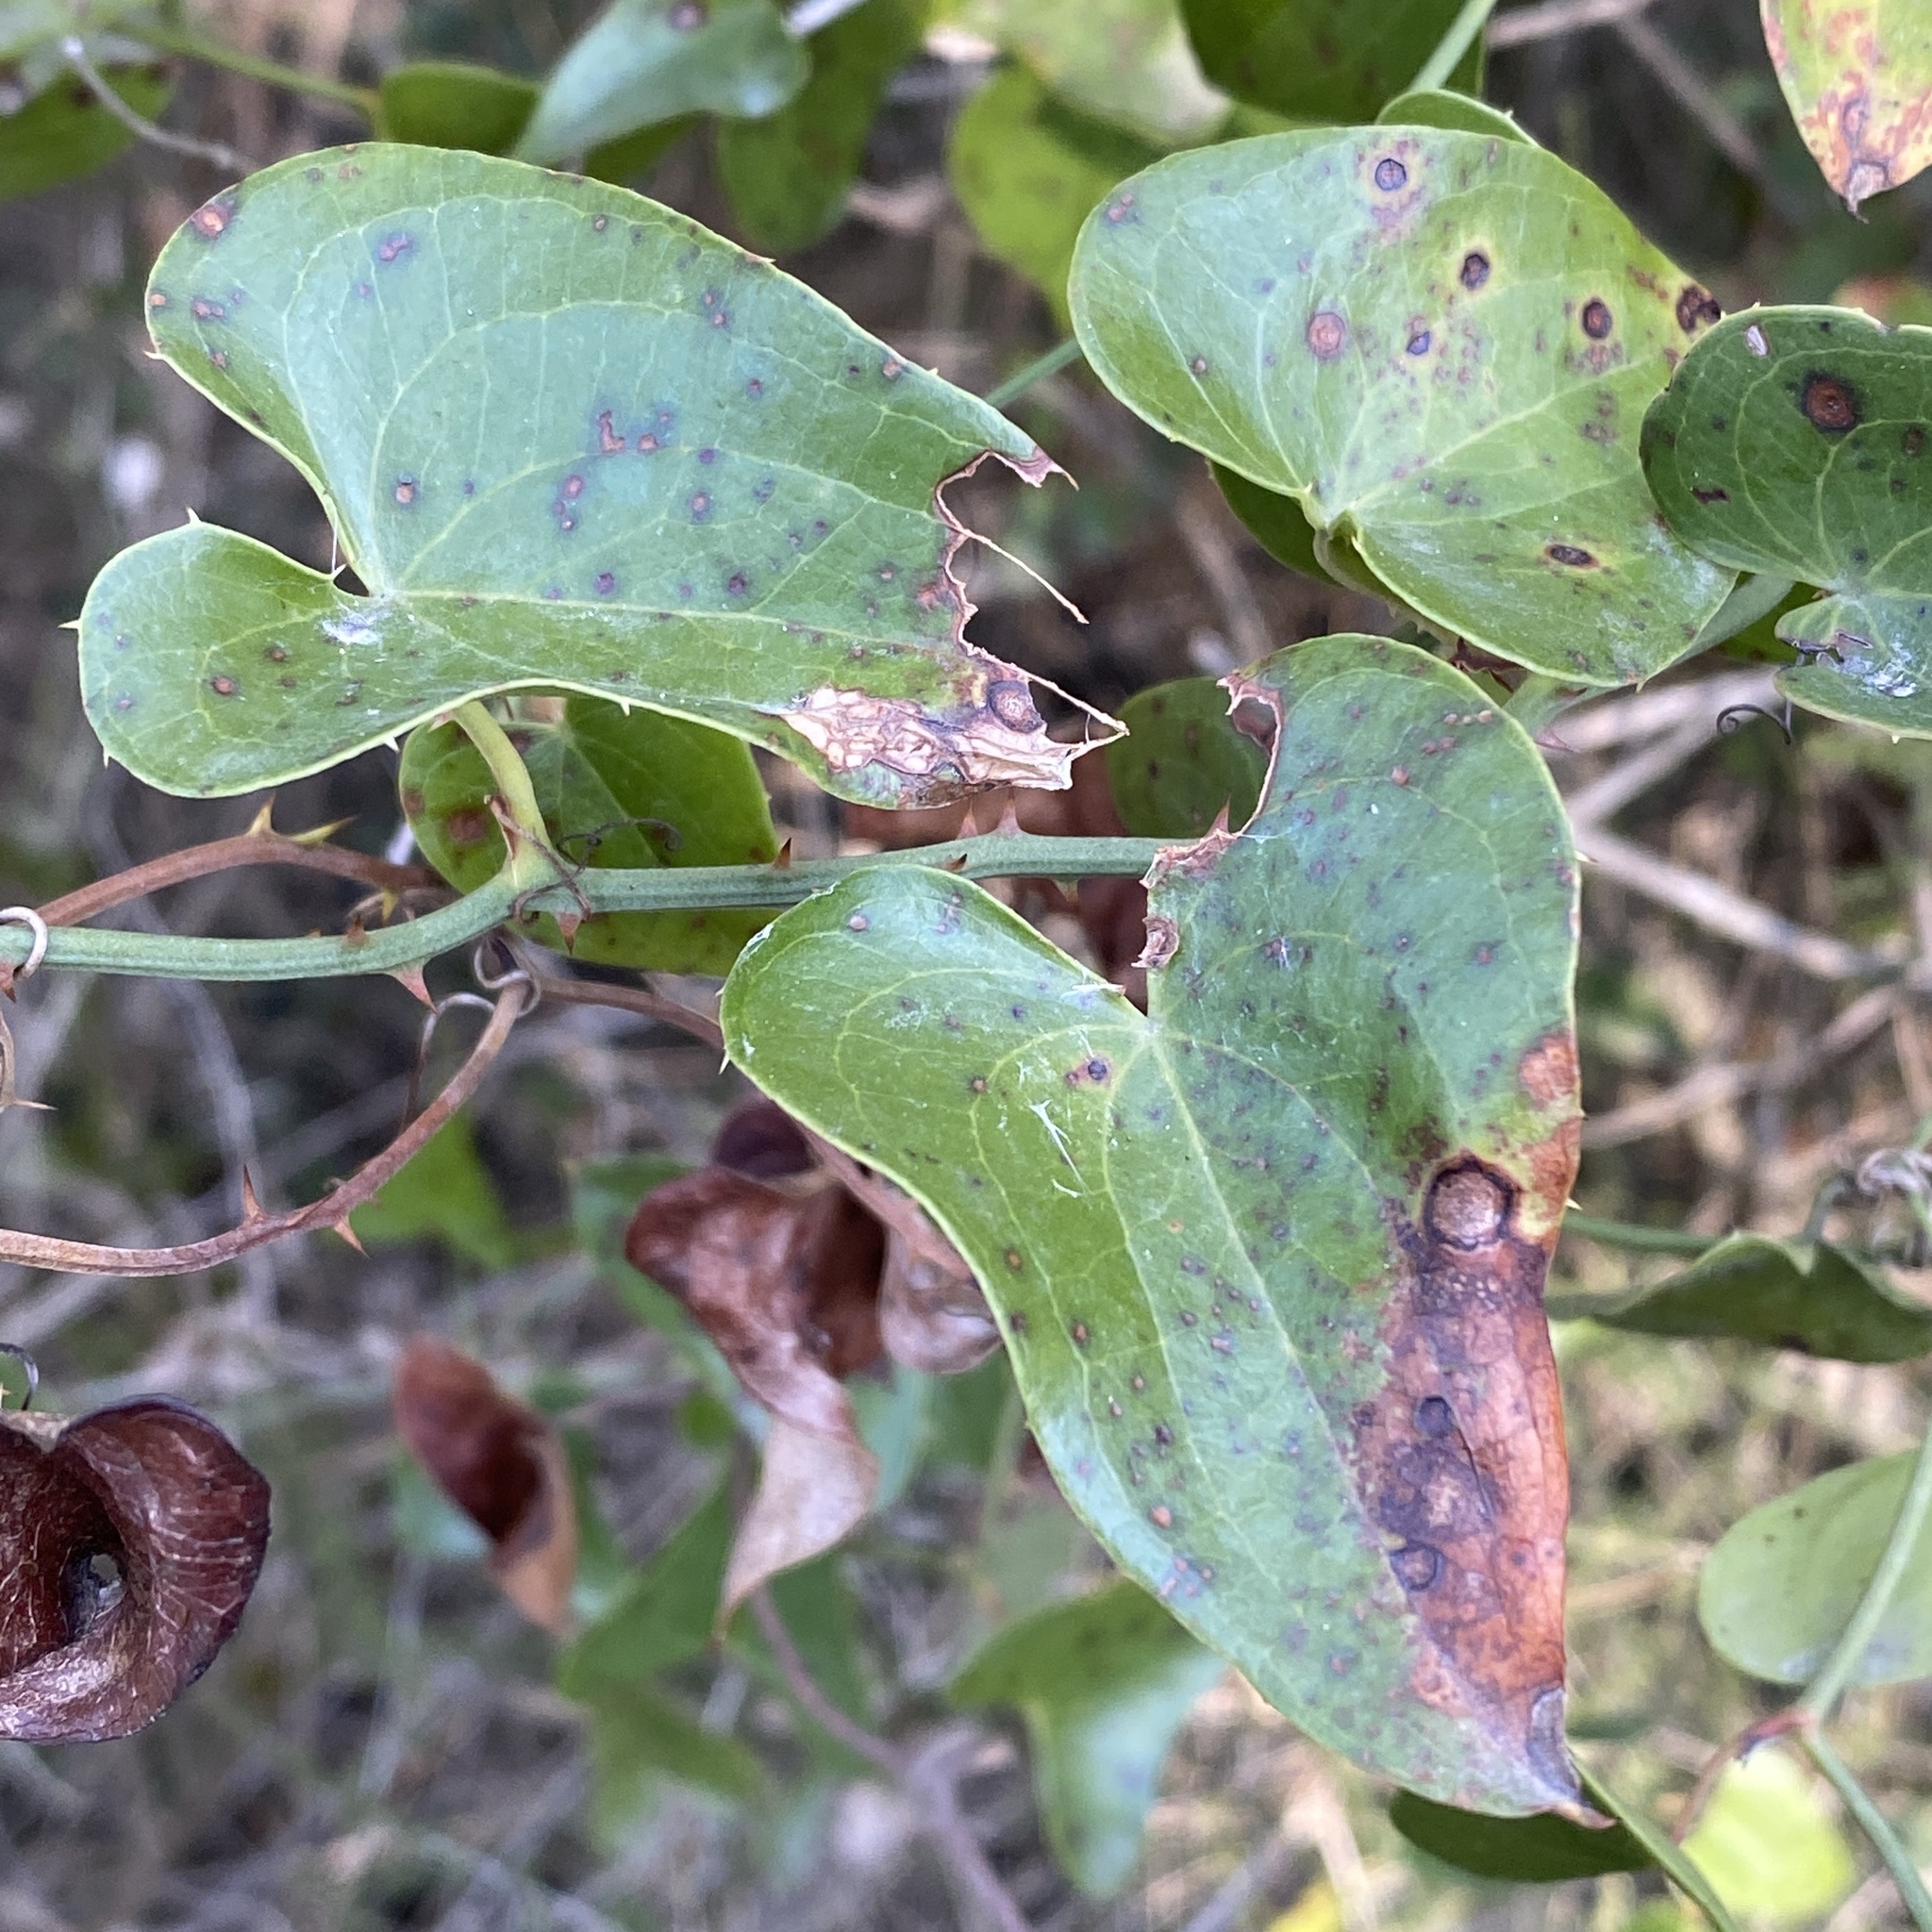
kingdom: Plantae
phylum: Tracheophyta
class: Liliopsida
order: Liliales
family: Smilacaceae
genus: Smilax
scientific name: Smilax aspera
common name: Common smilax
